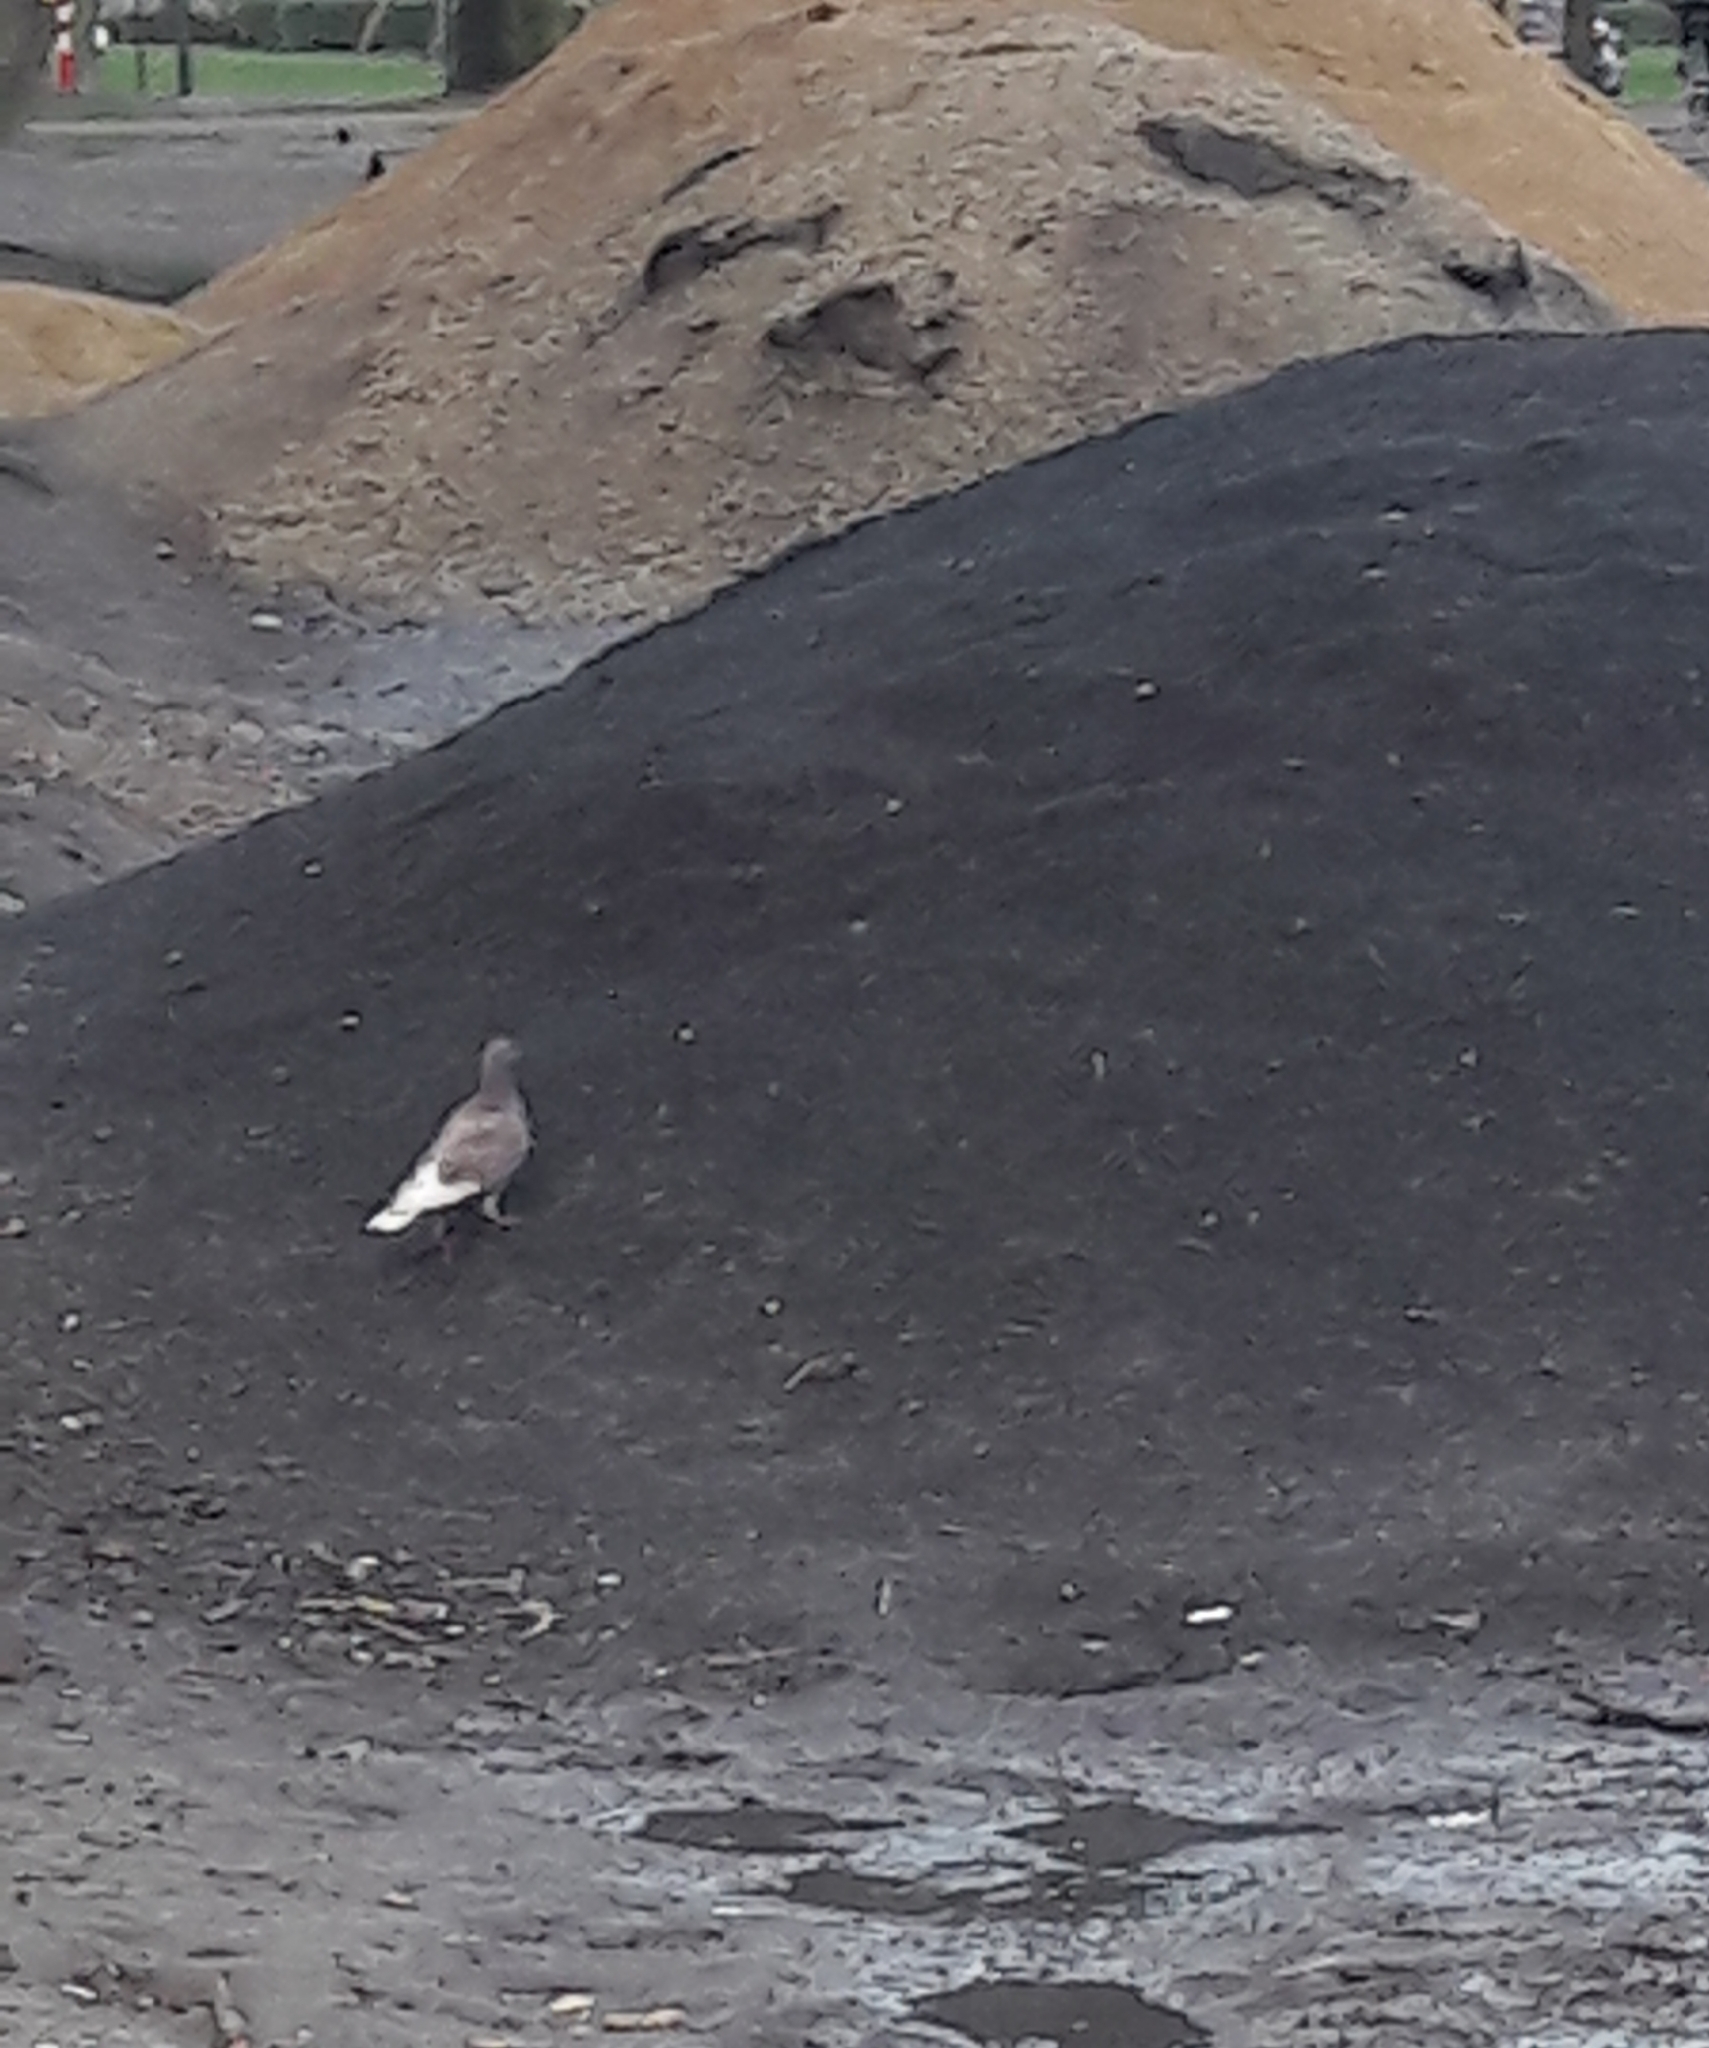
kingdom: Animalia
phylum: Chordata
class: Aves
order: Columbiformes
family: Columbidae
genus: Columba
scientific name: Columba livia
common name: Rock pigeon
